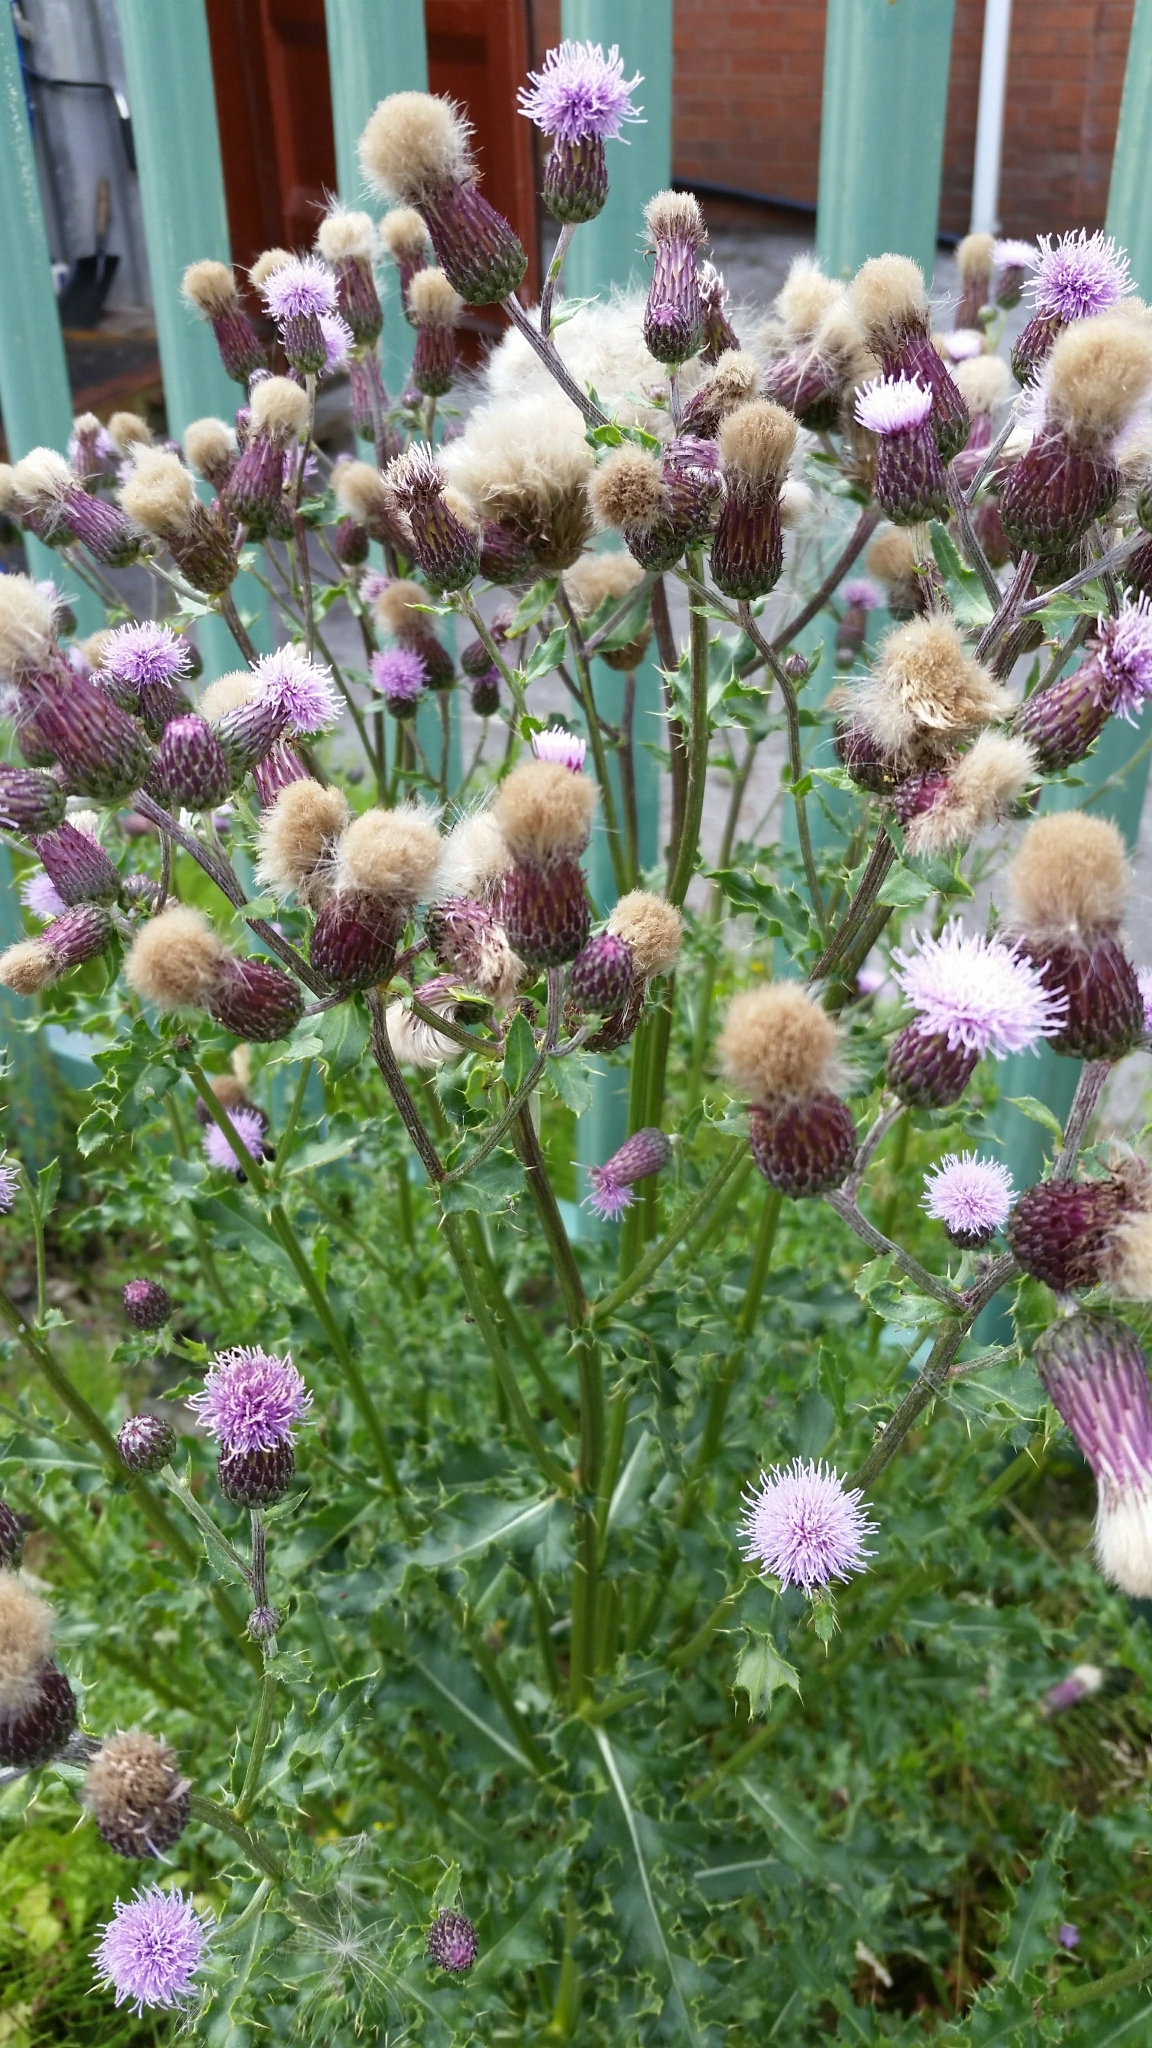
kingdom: Plantae
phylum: Tracheophyta
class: Magnoliopsida
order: Asterales
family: Asteraceae
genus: Cirsium
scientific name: Cirsium arvense
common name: Creeping thistle
